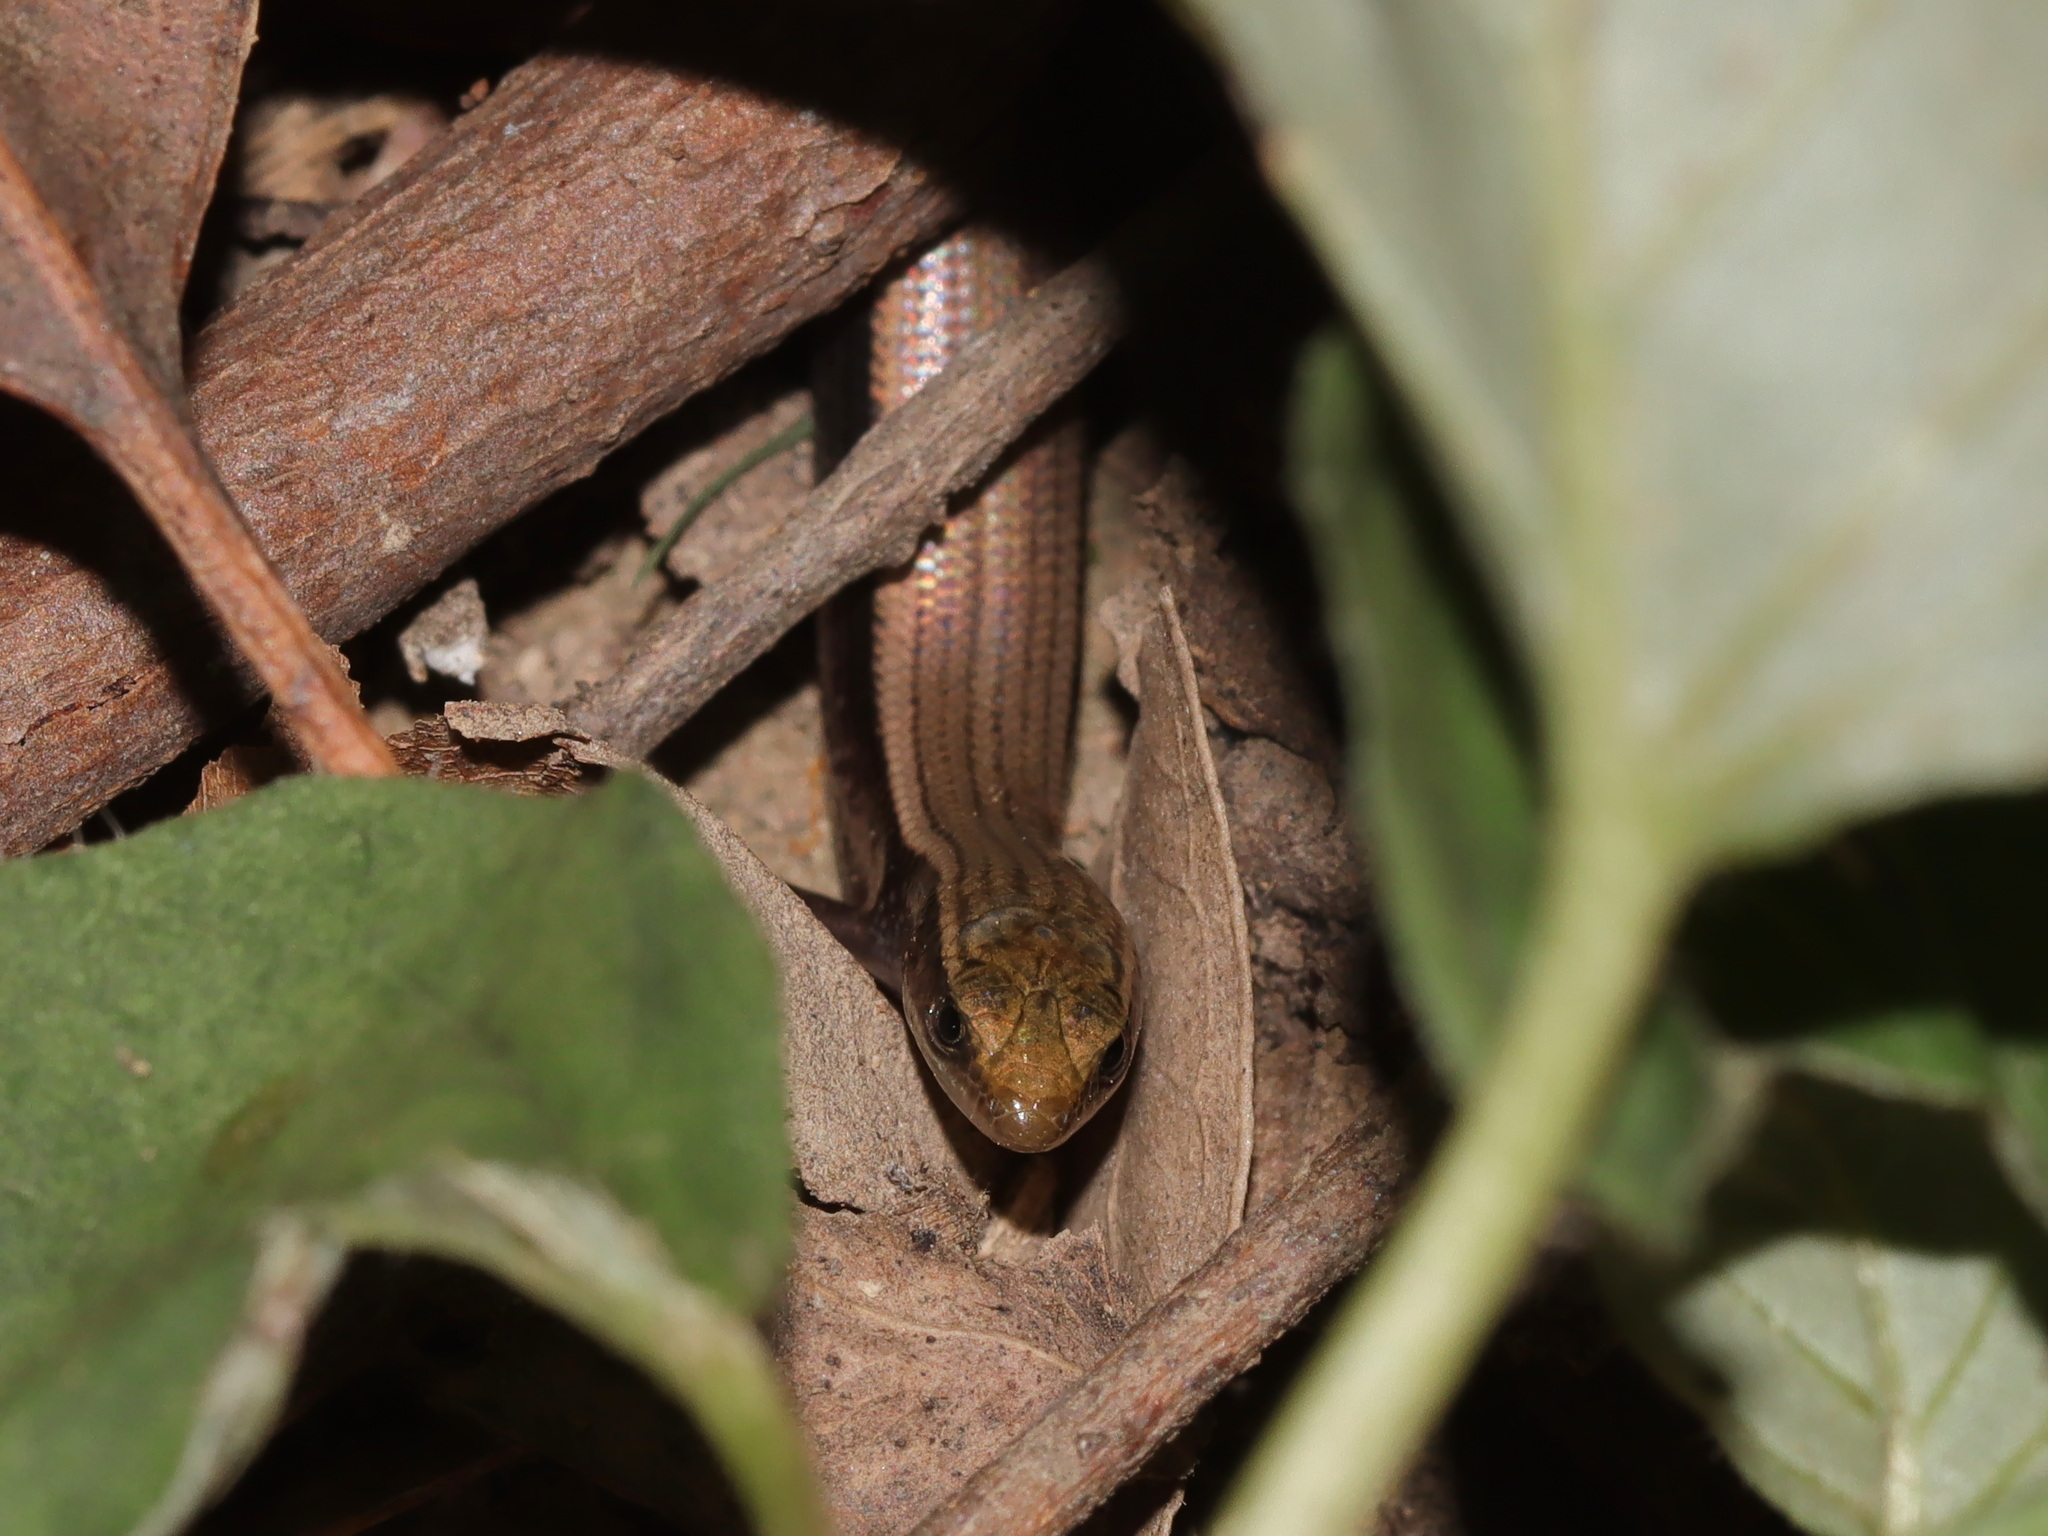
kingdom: Animalia
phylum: Chordata
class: Squamata
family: Scincidae
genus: Subdoluseps
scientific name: Subdoluseps frontoparietalis
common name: Pygmy supple skink
